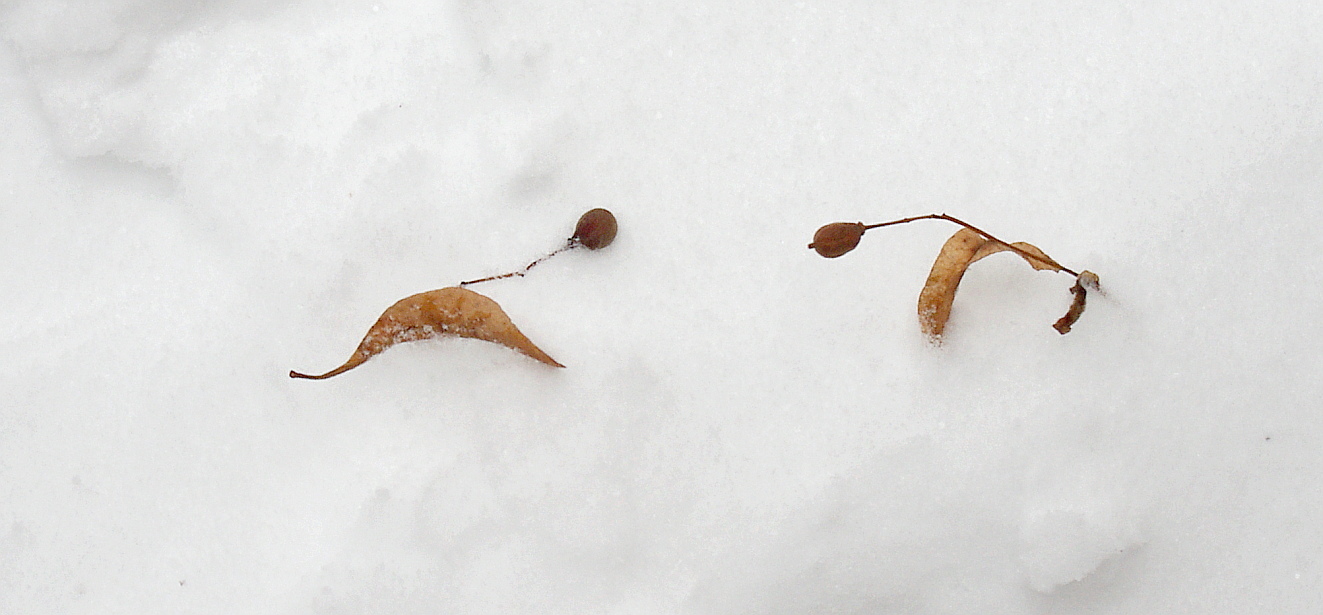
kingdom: Plantae
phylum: Tracheophyta
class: Magnoliopsida
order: Malvales
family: Malvaceae
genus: Tilia
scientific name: Tilia cordata
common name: Small-leaved lime
